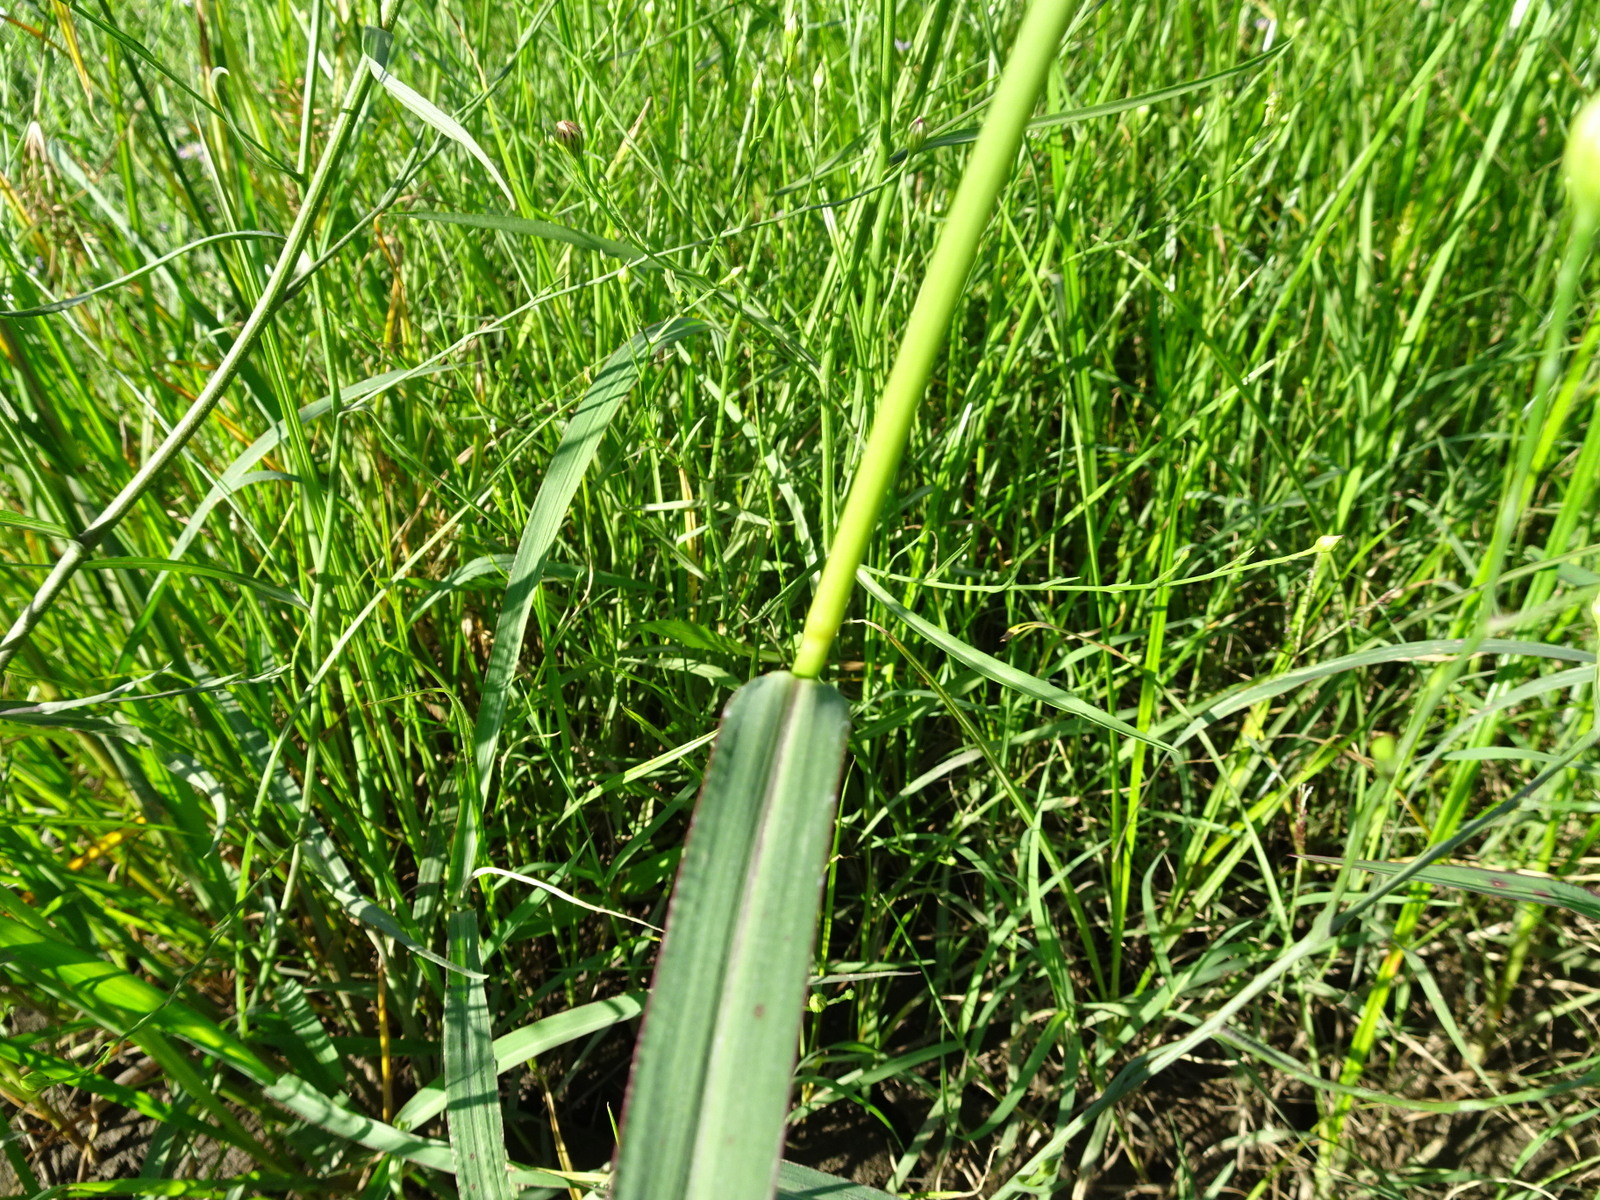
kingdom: Plantae
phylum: Tracheophyta
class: Liliopsida
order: Poales
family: Poaceae
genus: Echinochloa
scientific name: Echinochloa
